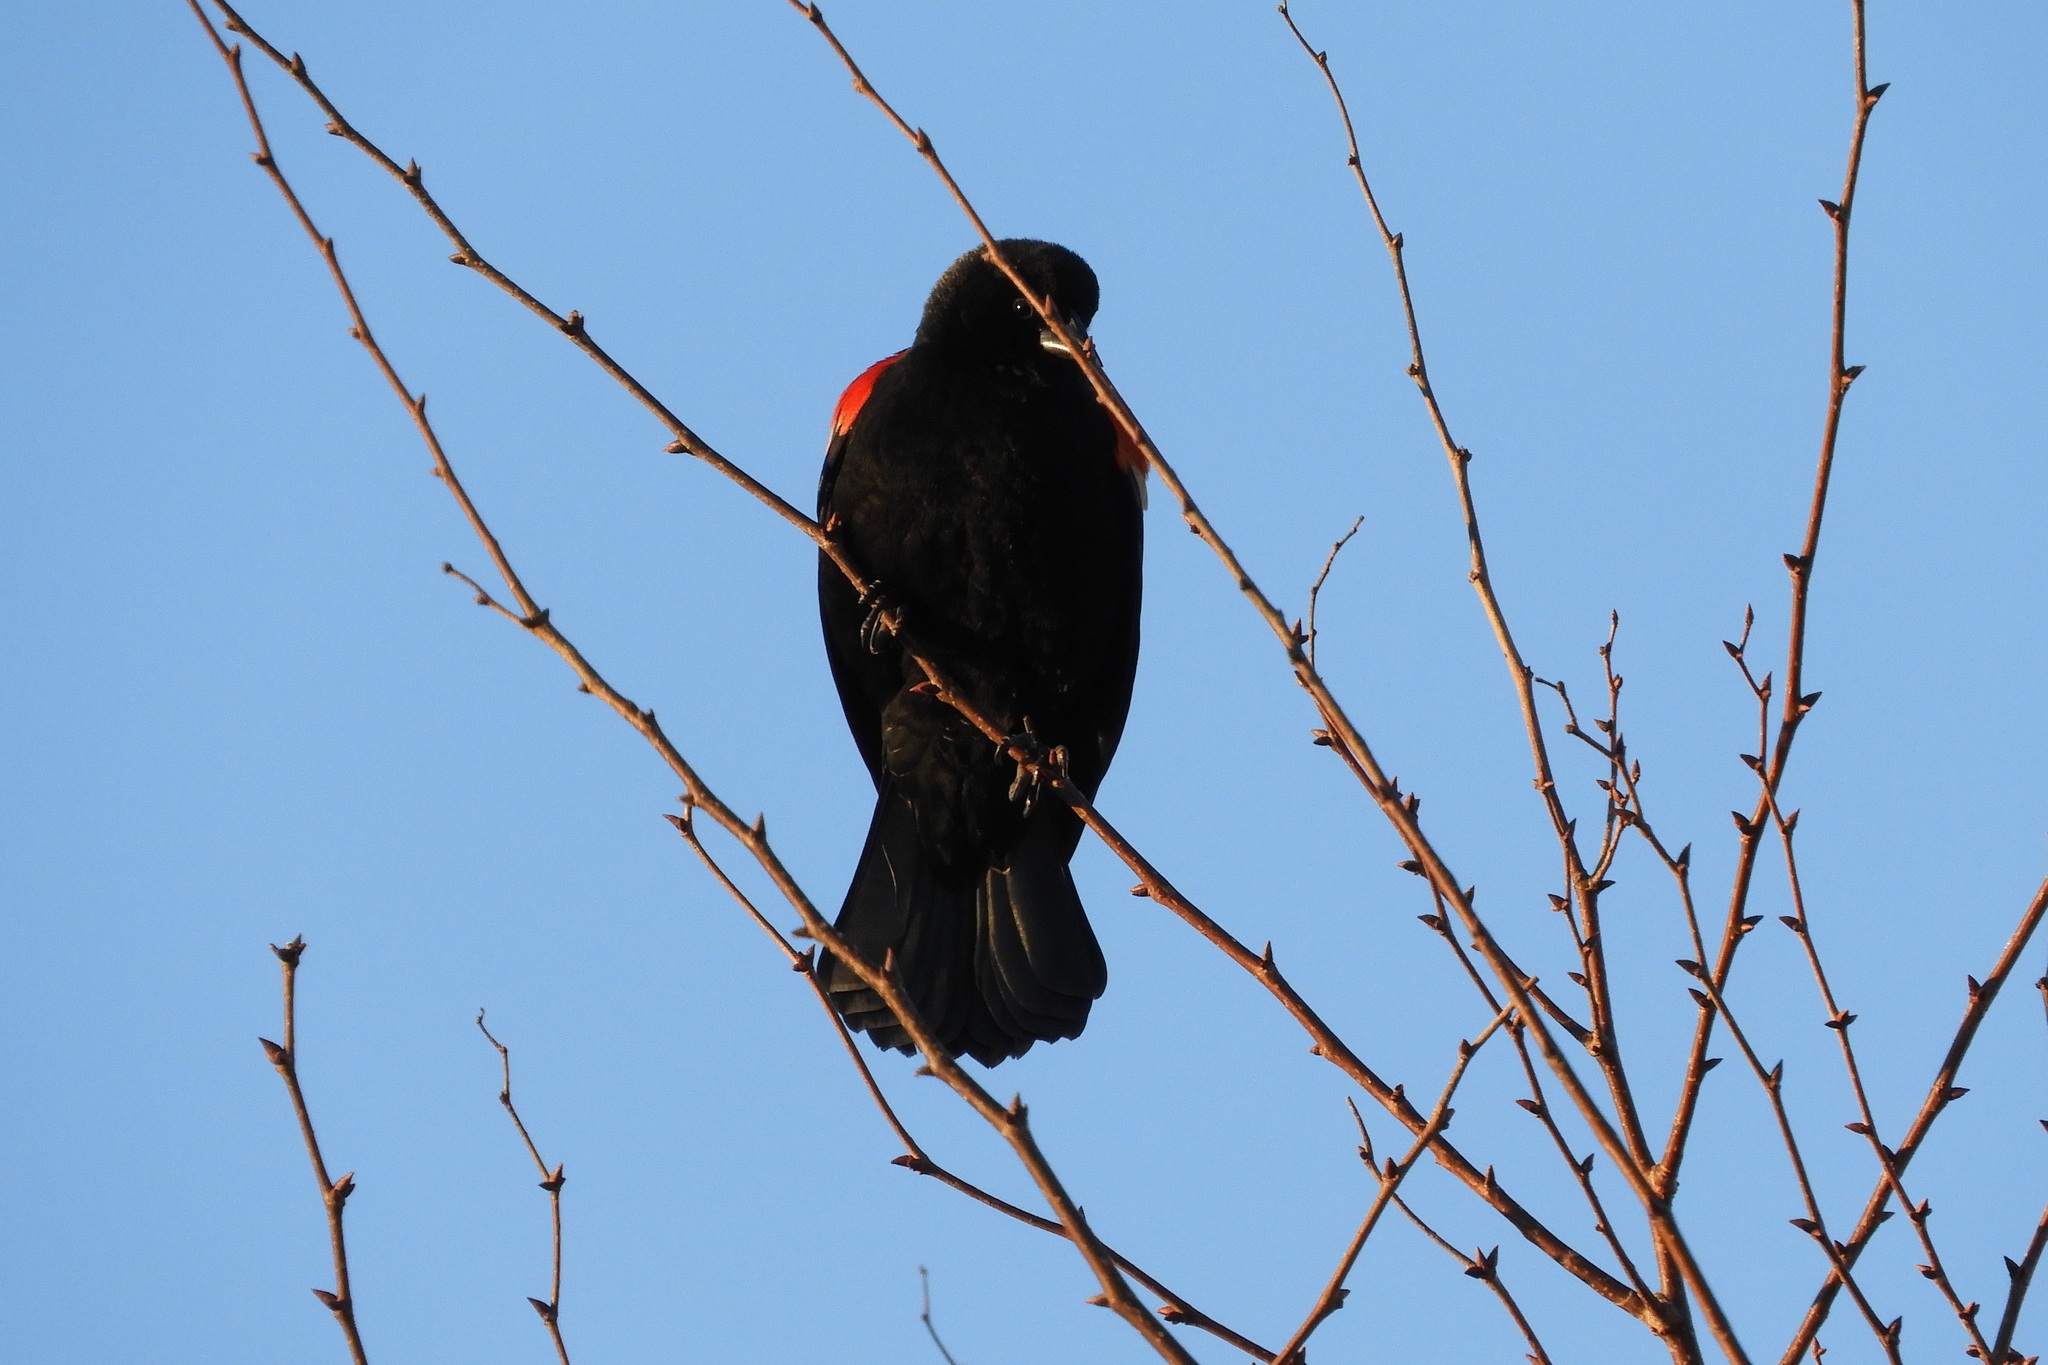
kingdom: Animalia
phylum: Chordata
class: Aves
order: Passeriformes
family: Icteridae
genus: Agelaius
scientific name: Agelaius phoeniceus
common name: Red-winged blackbird
